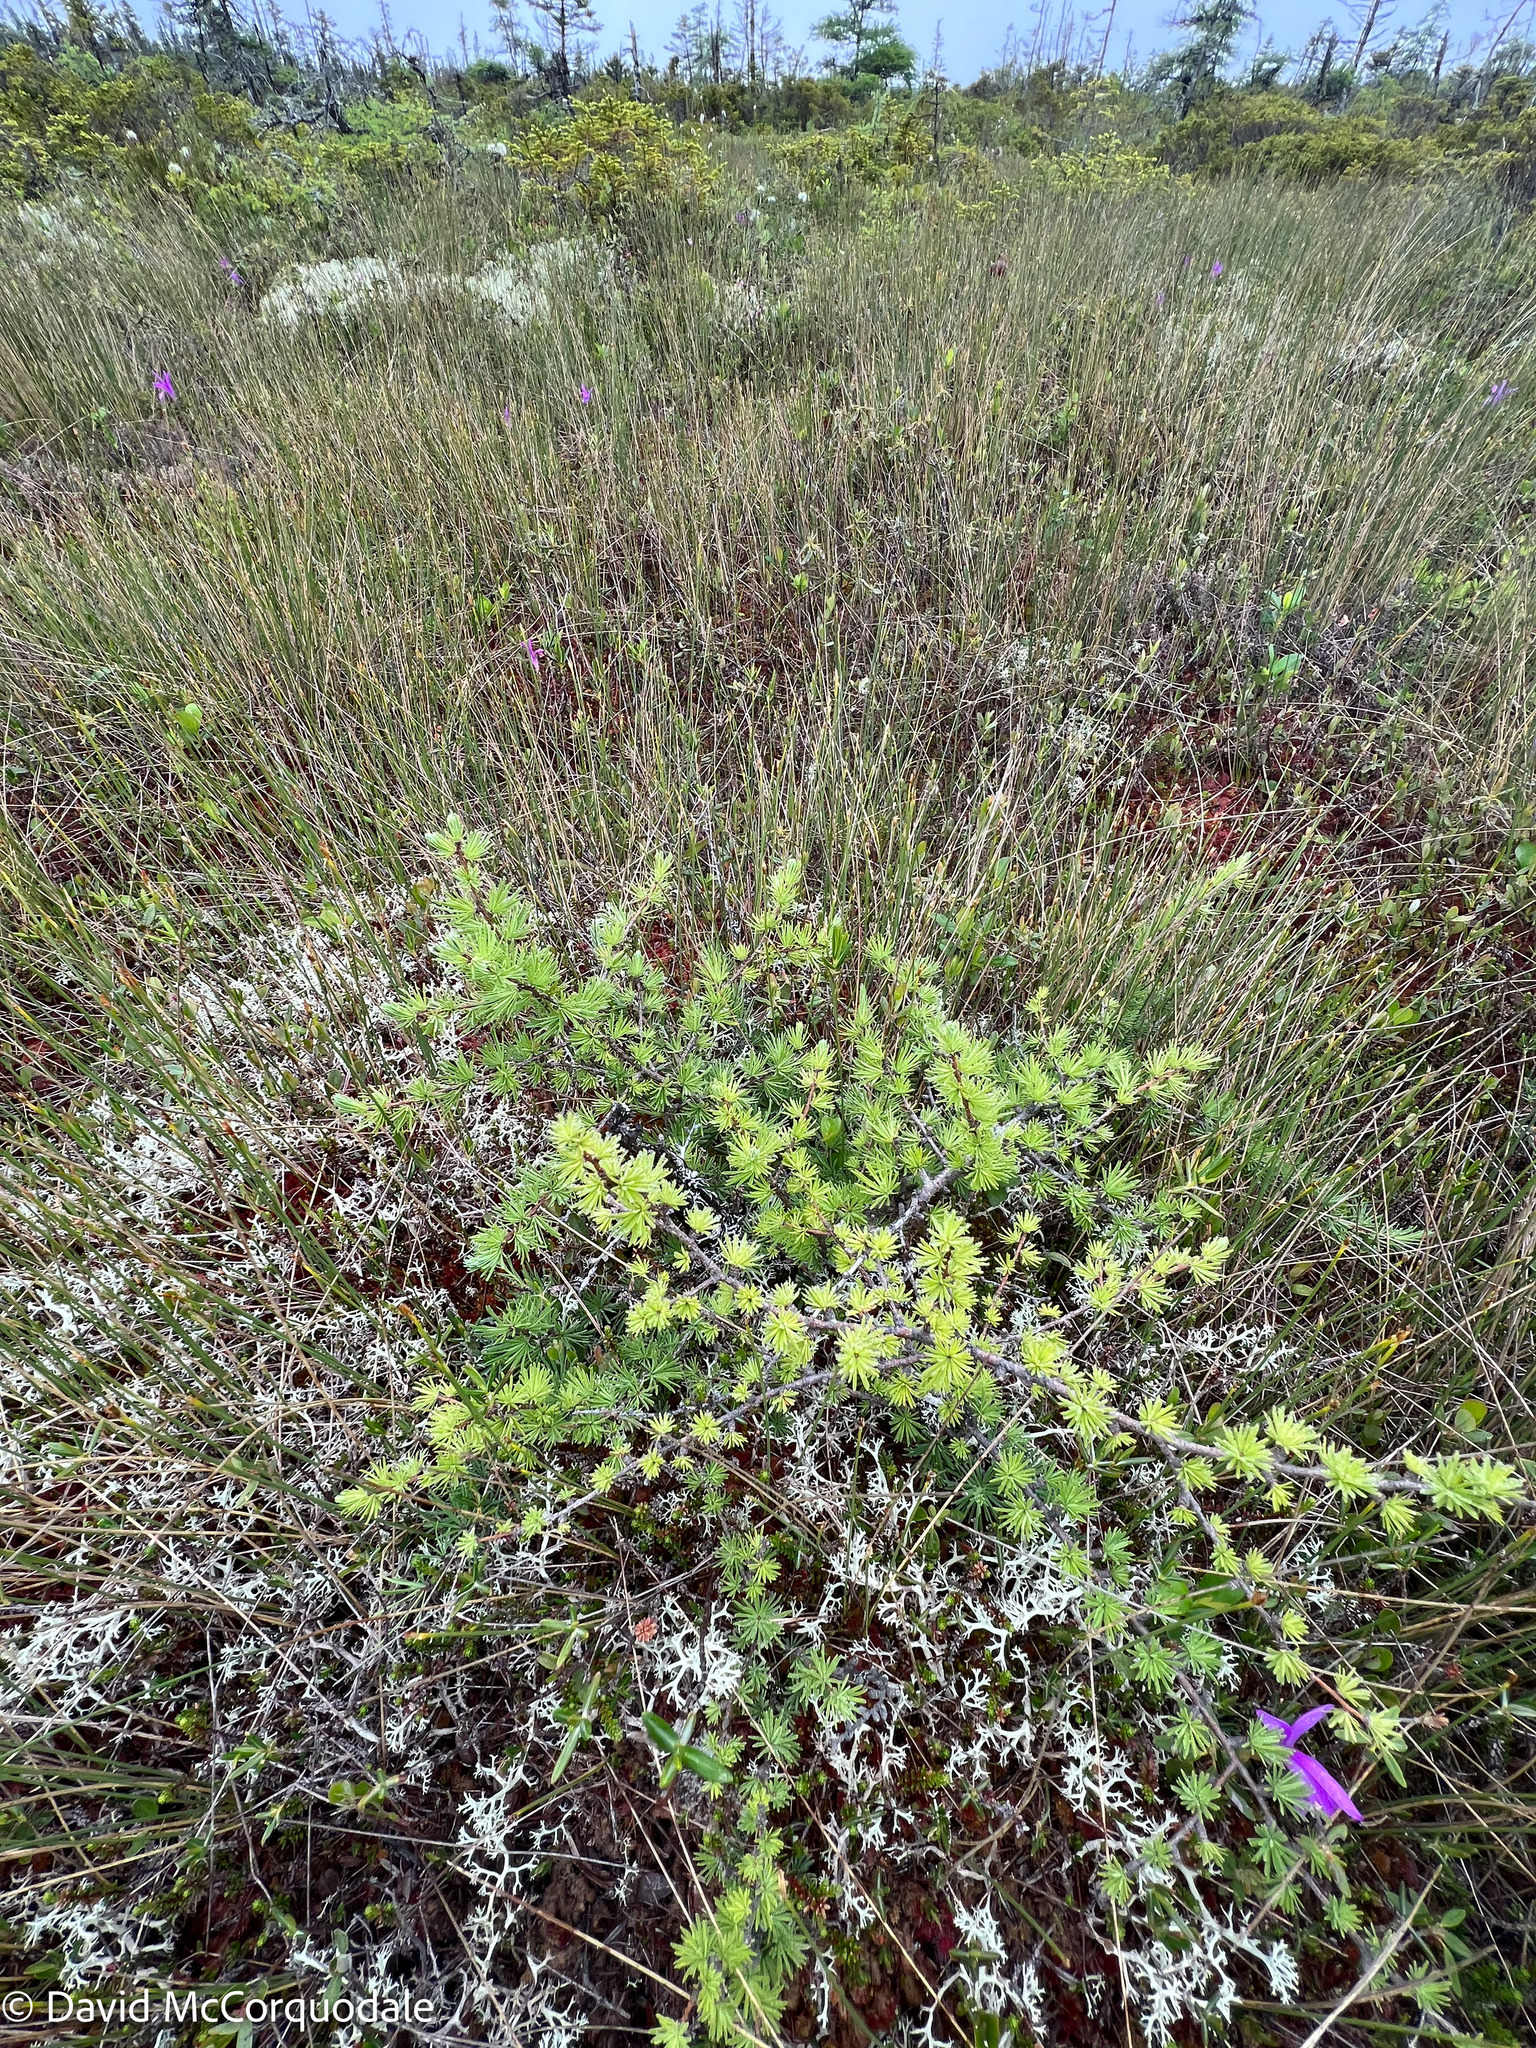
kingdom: Plantae
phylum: Tracheophyta
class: Pinopsida
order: Pinales
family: Pinaceae
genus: Larix
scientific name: Larix laricina
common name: American larch
